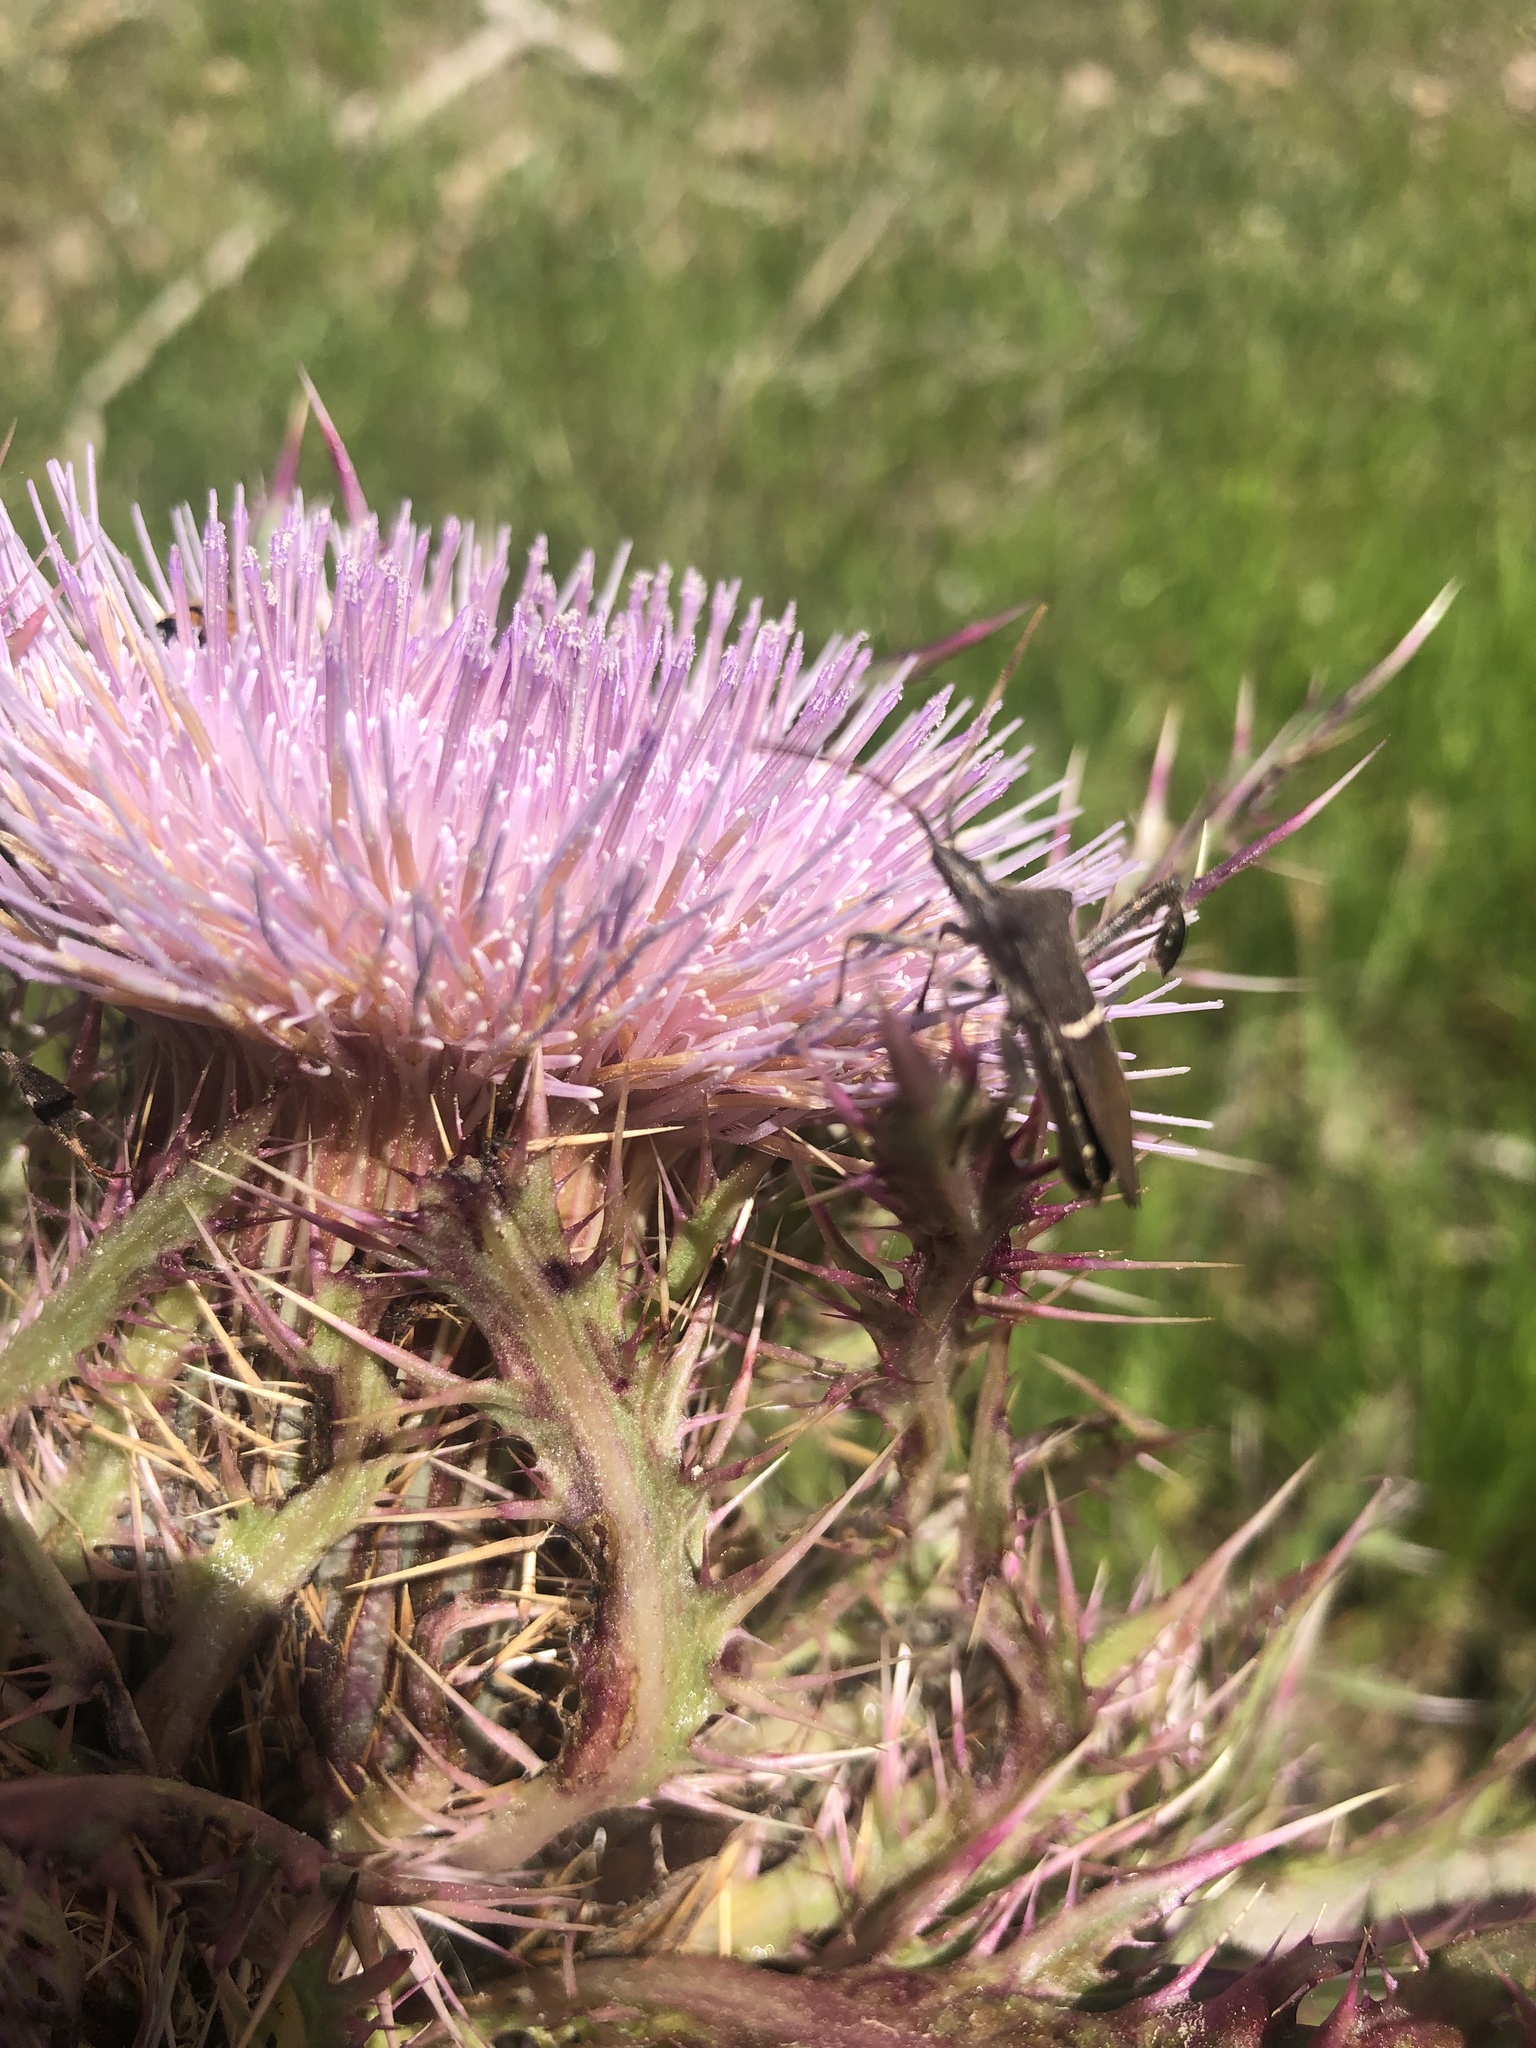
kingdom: Animalia
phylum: Arthropoda
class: Insecta
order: Hemiptera
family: Coreidae
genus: Leptoglossus
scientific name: Leptoglossus phyllopus
